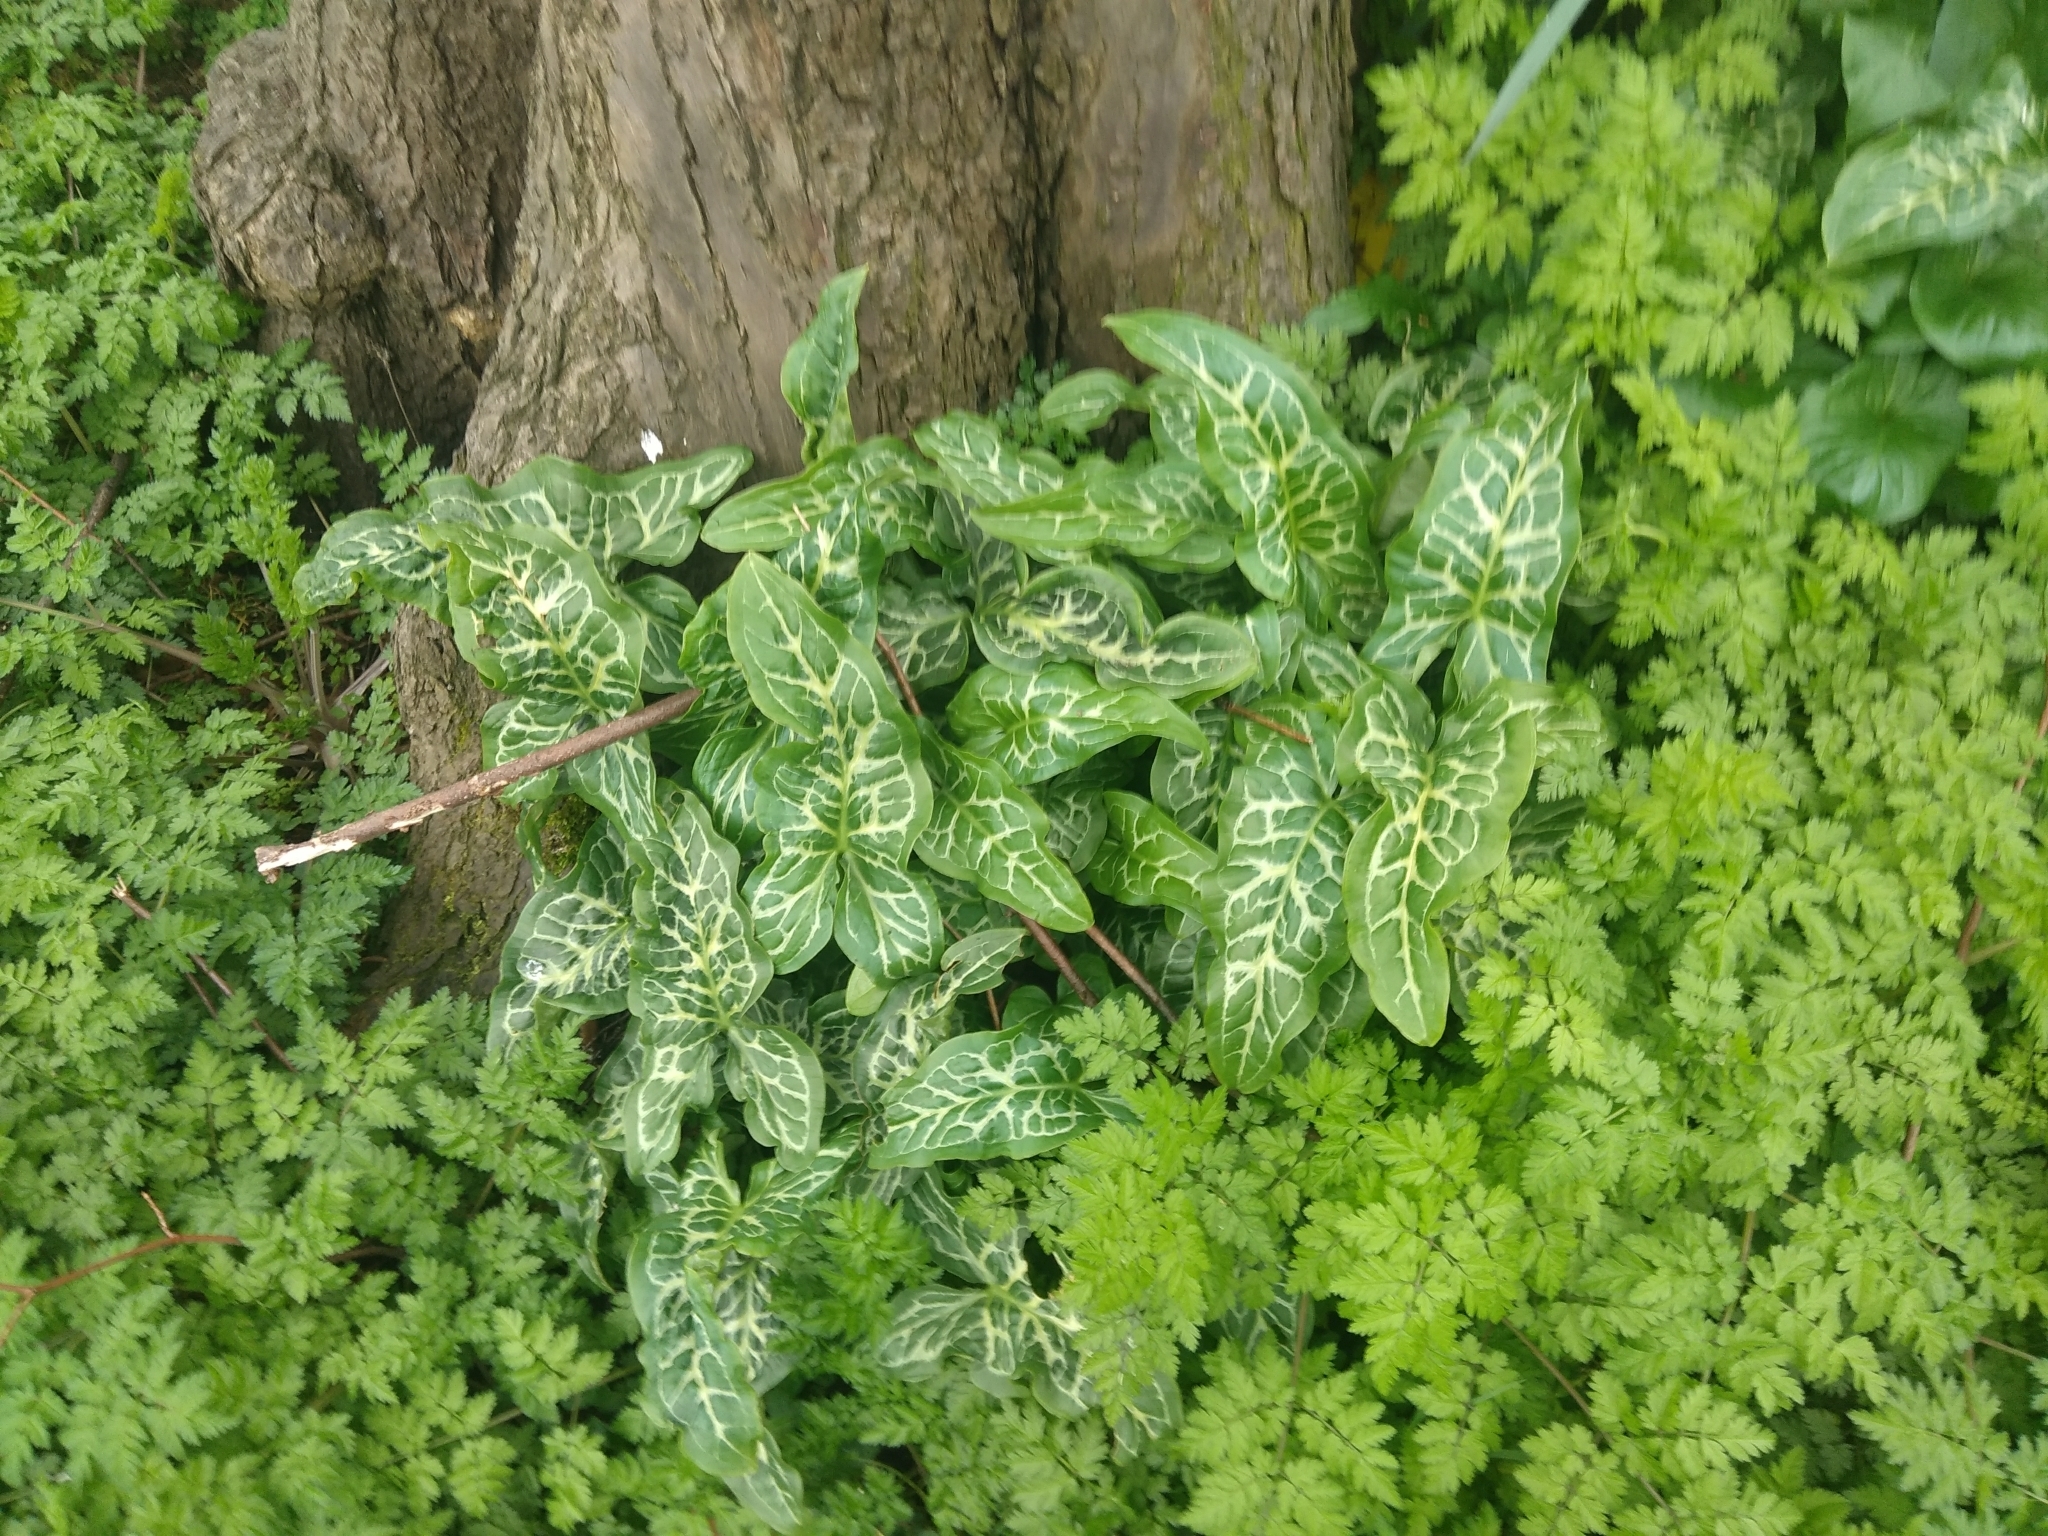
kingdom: Plantae
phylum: Tracheophyta
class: Liliopsida
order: Alismatales
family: Araceae
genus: Arum
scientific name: Arum italicum
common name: Italian lords-and-ladies
